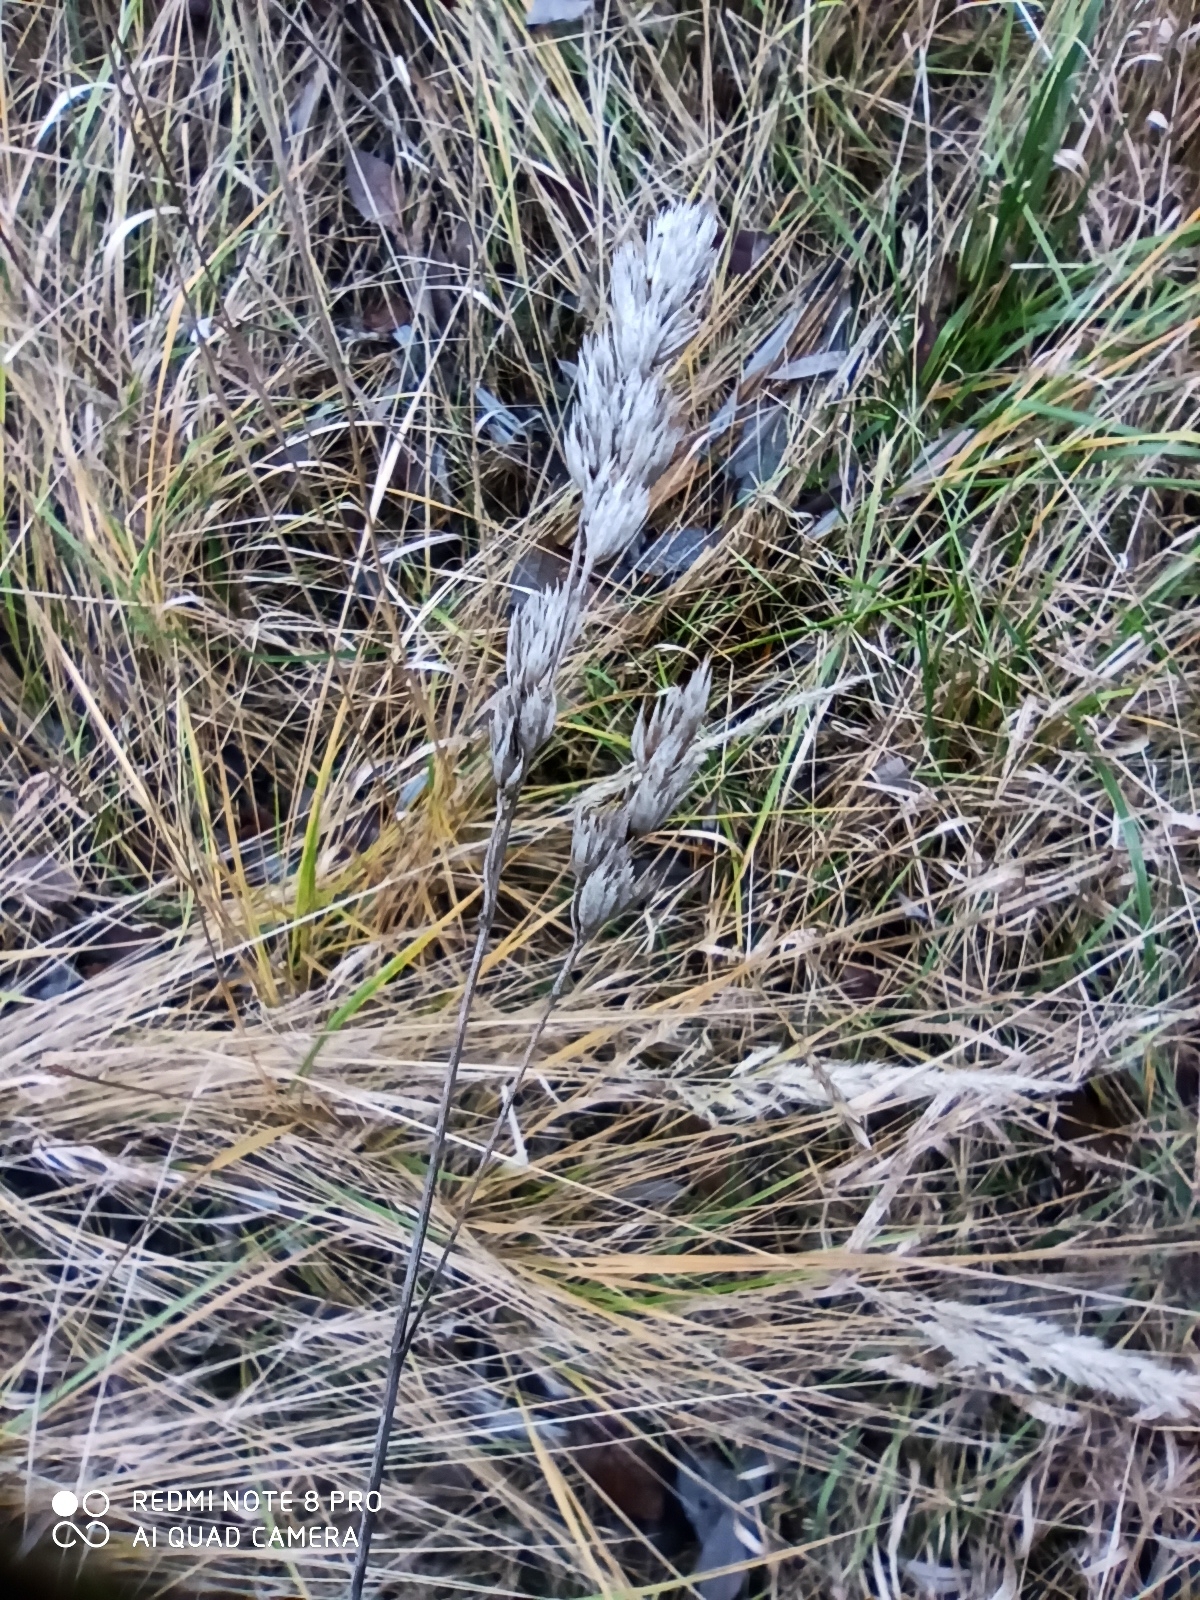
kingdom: Plantae
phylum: Tracheophyta
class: Liliopsida
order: Poales
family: Poaceae
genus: Dactylis
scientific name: Dactylis glomerata
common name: Orchardgrass
